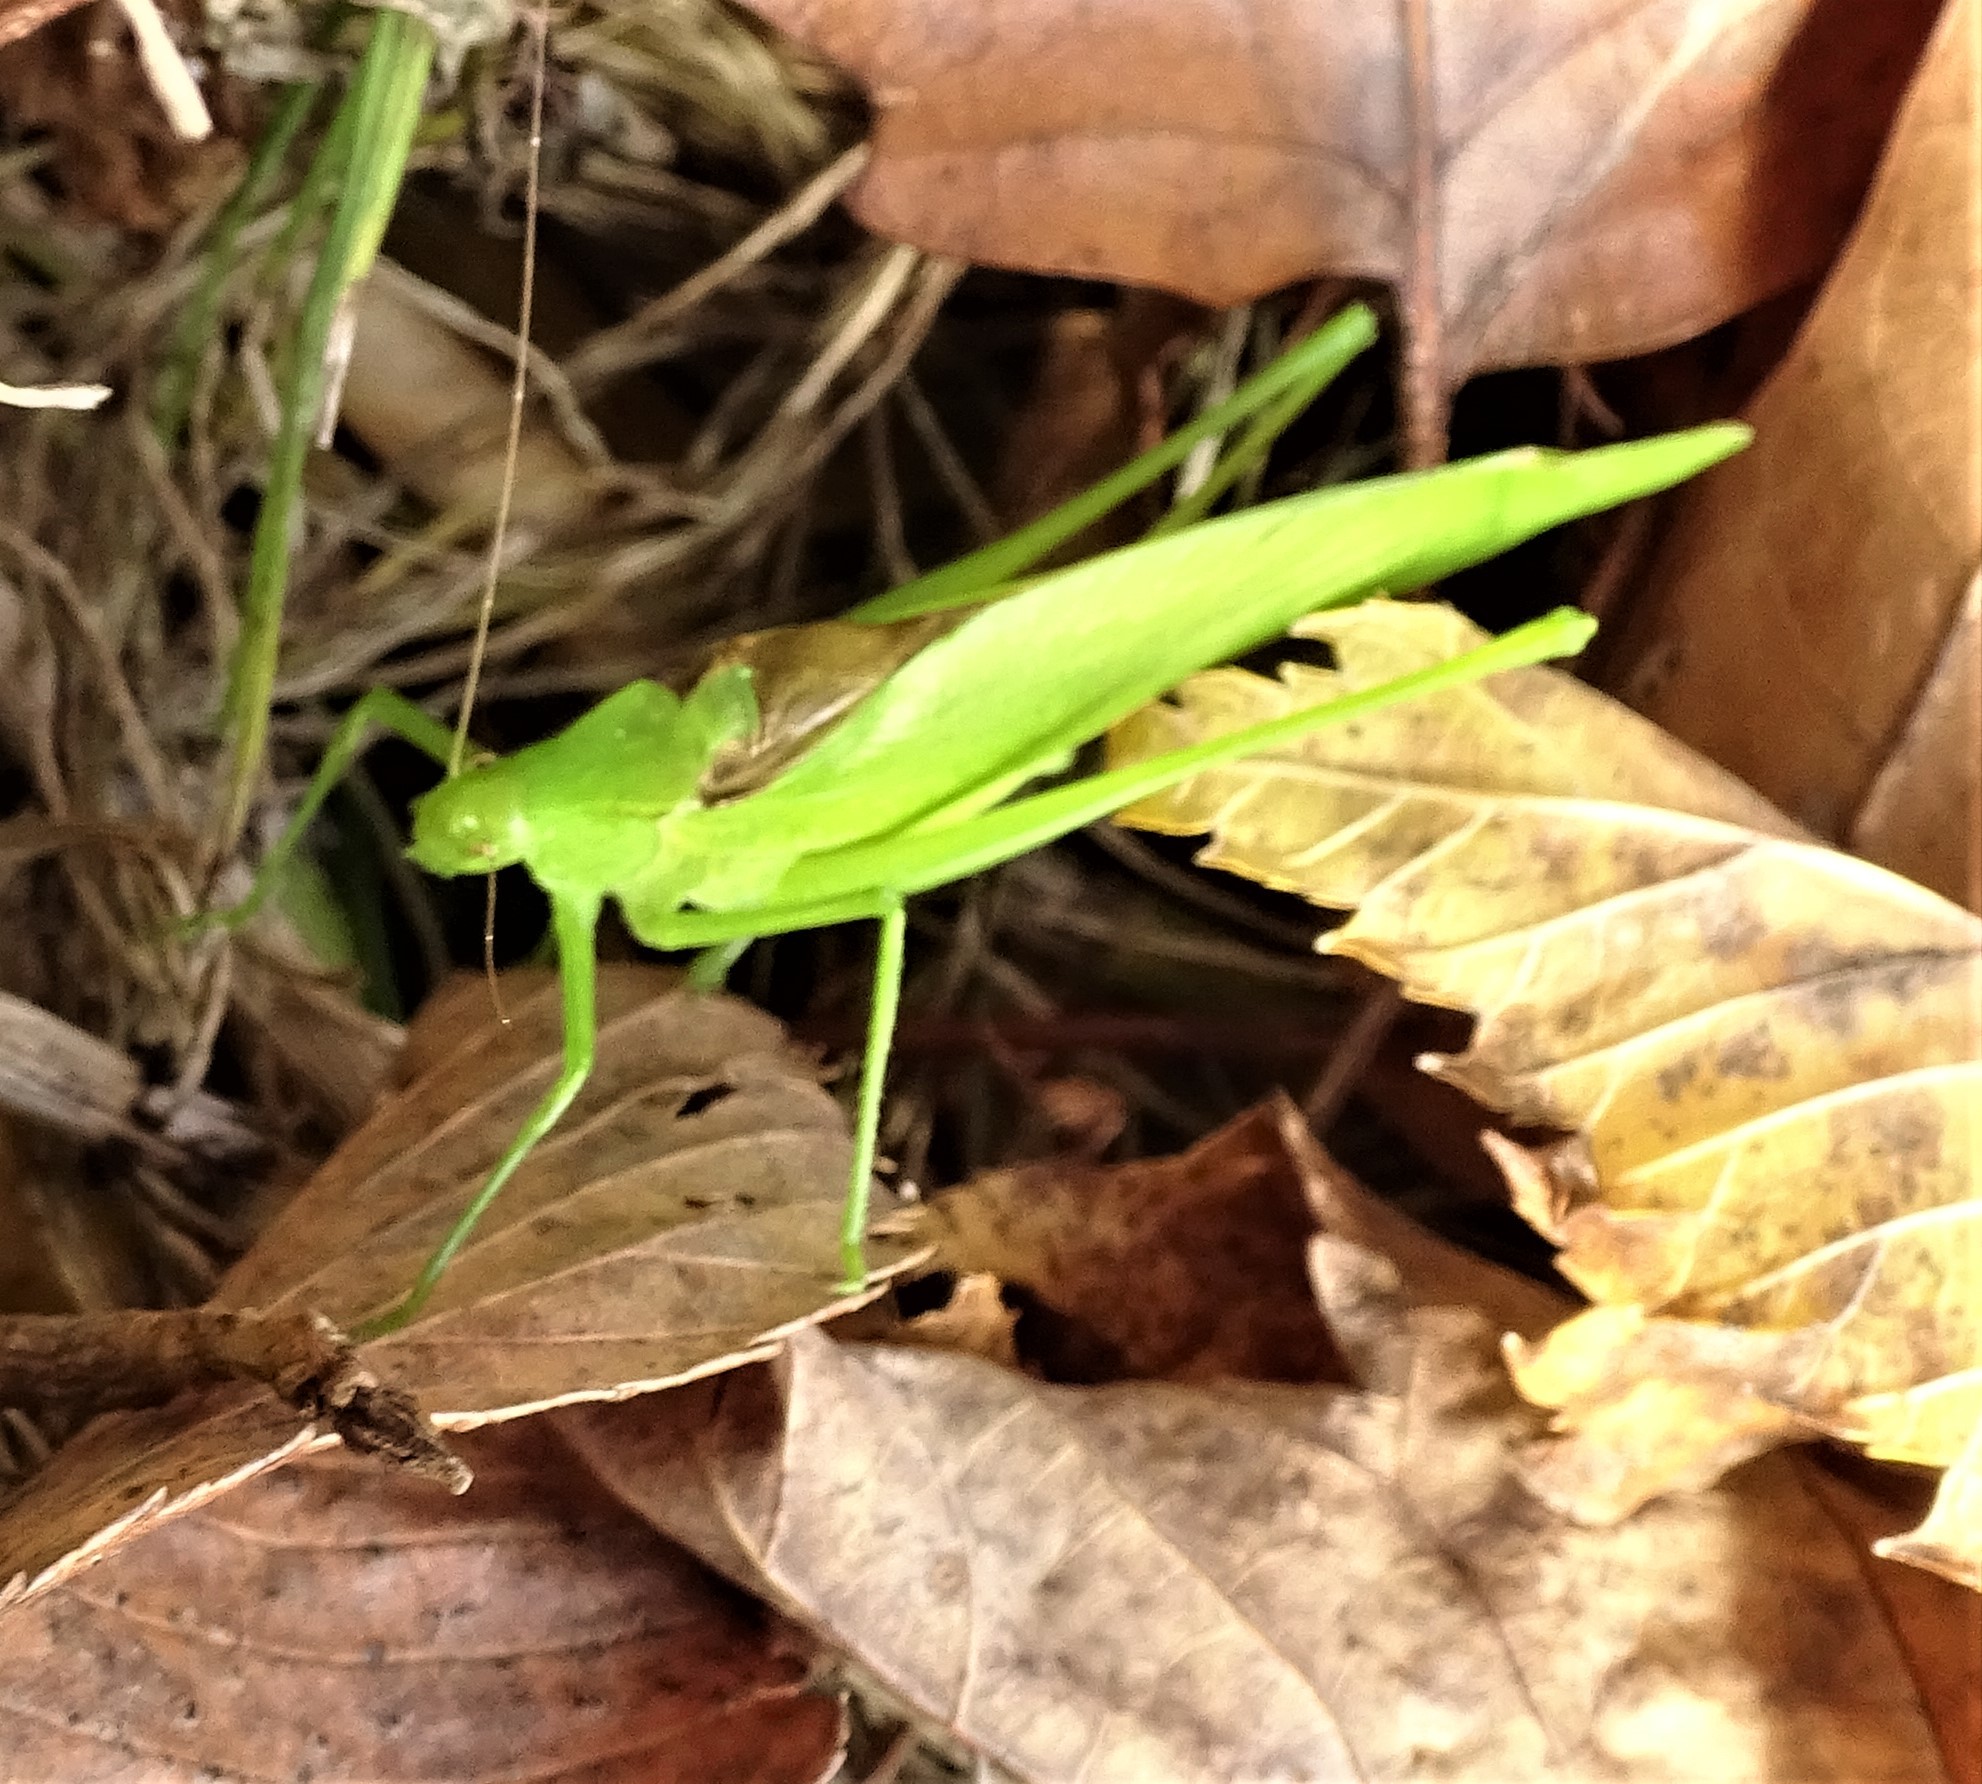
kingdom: Animalia
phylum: Arthropoda
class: Insecta
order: Orthoptera
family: Tettigoniidae
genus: Amblycorypha
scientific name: Amblycorypha oblongifolia
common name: Oblong-winged katydid
